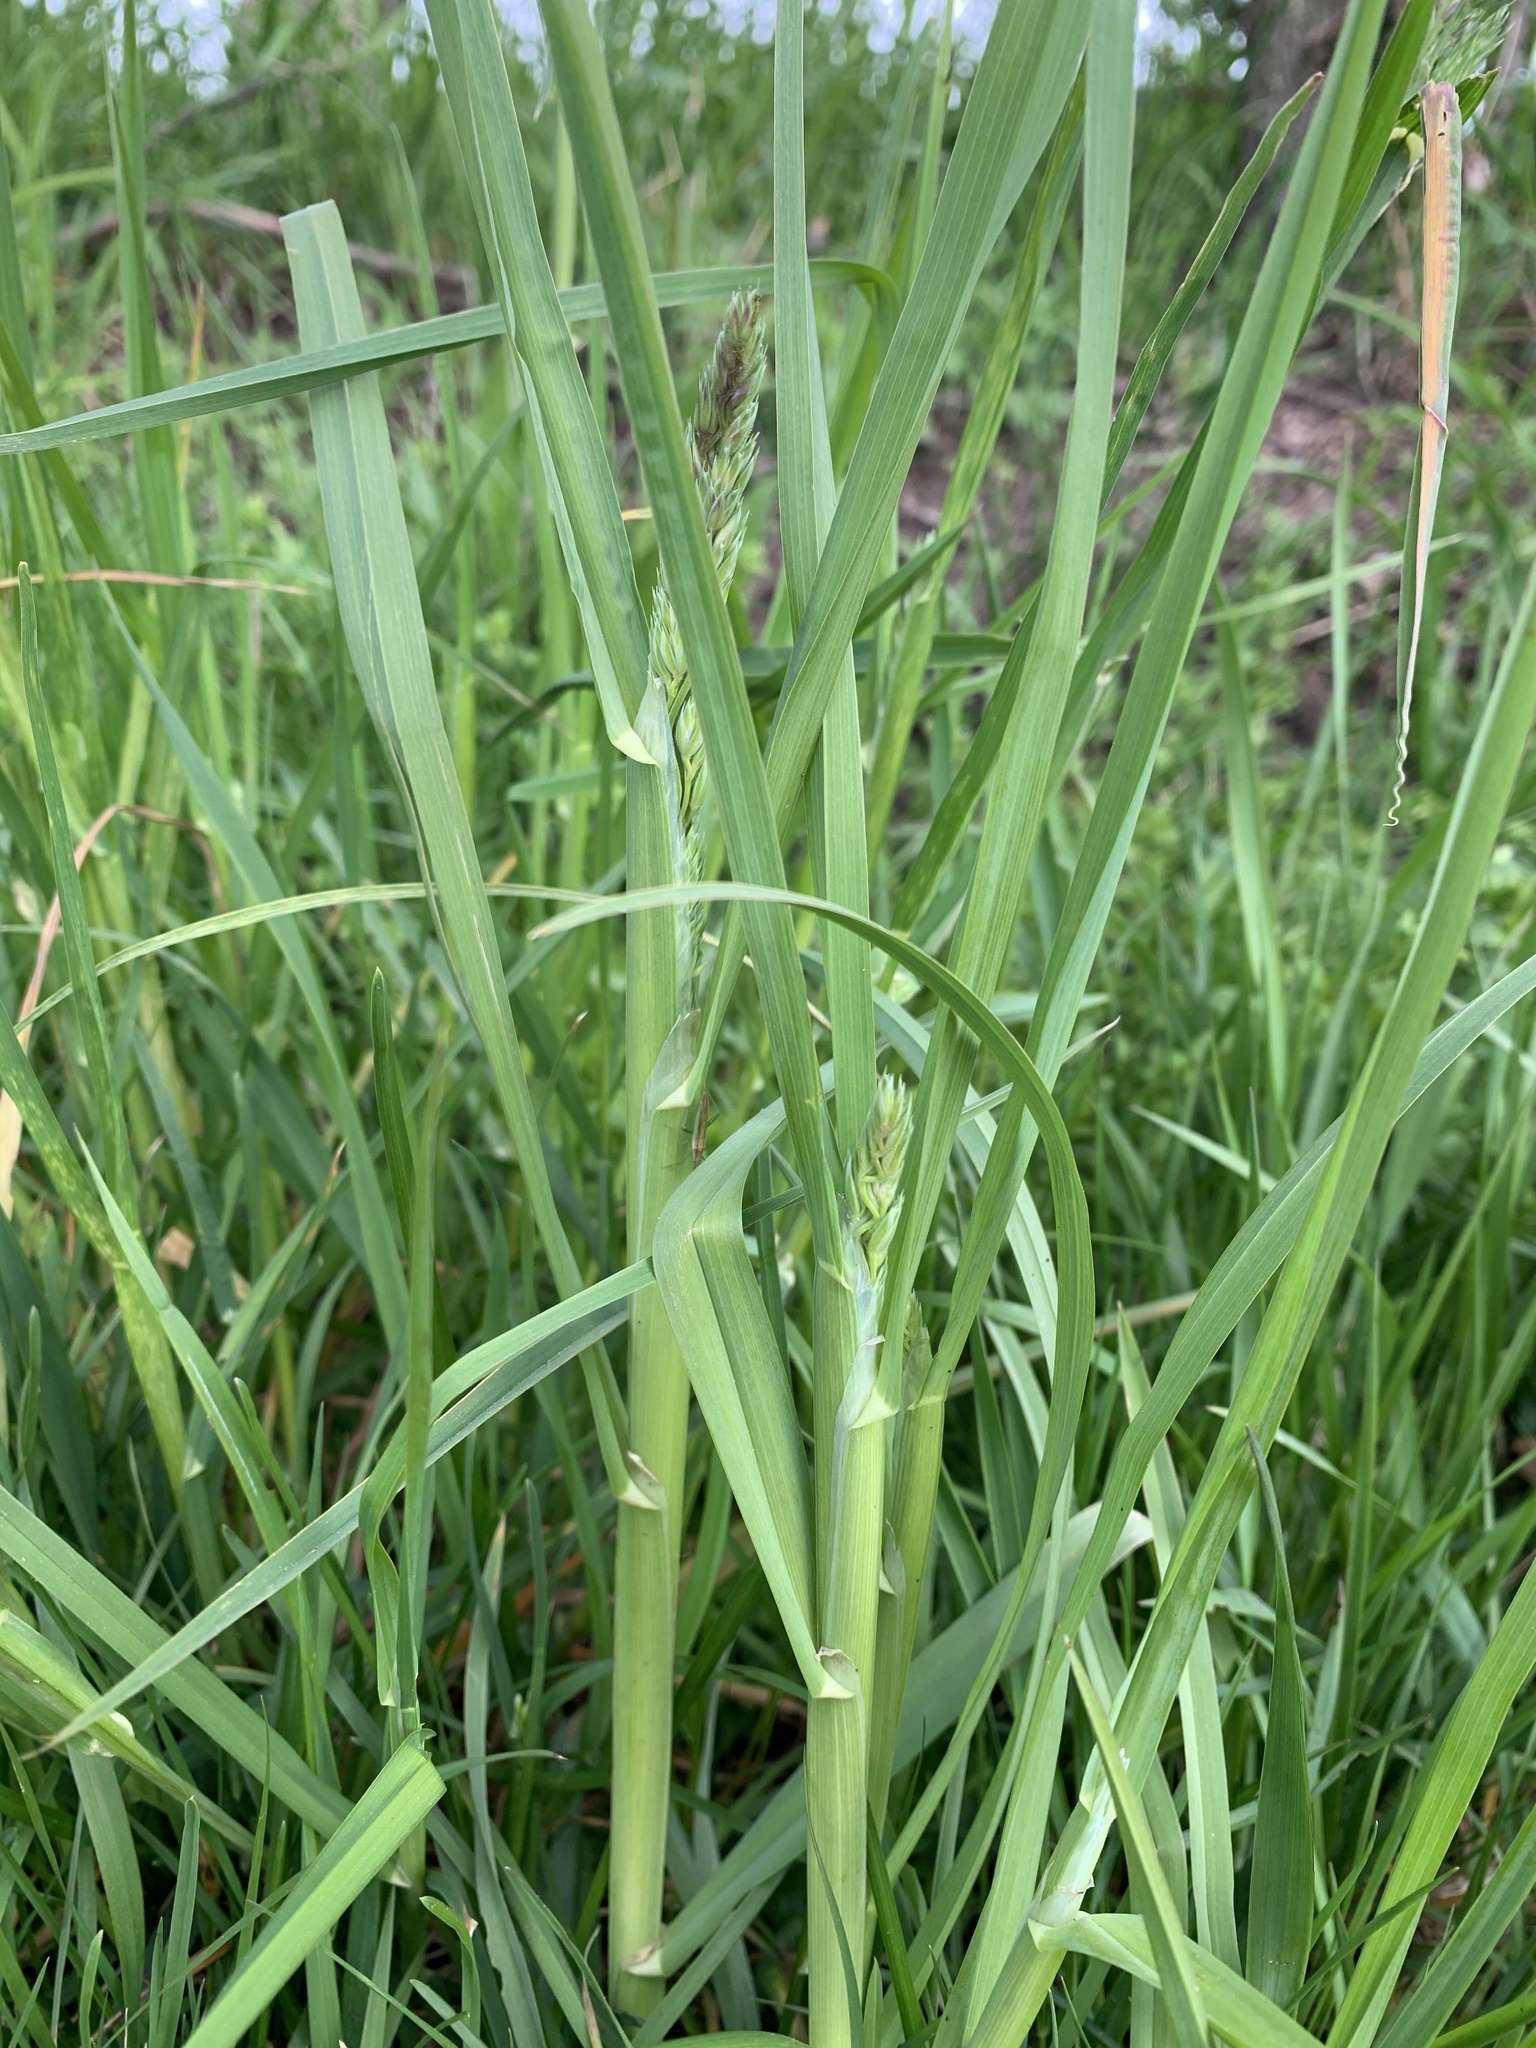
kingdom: Plantae
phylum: Tracheophyta
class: Liliopsida
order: Poales
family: Poaceae
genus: Dactylis
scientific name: Dactylis glomerata
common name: Orchardgrass
